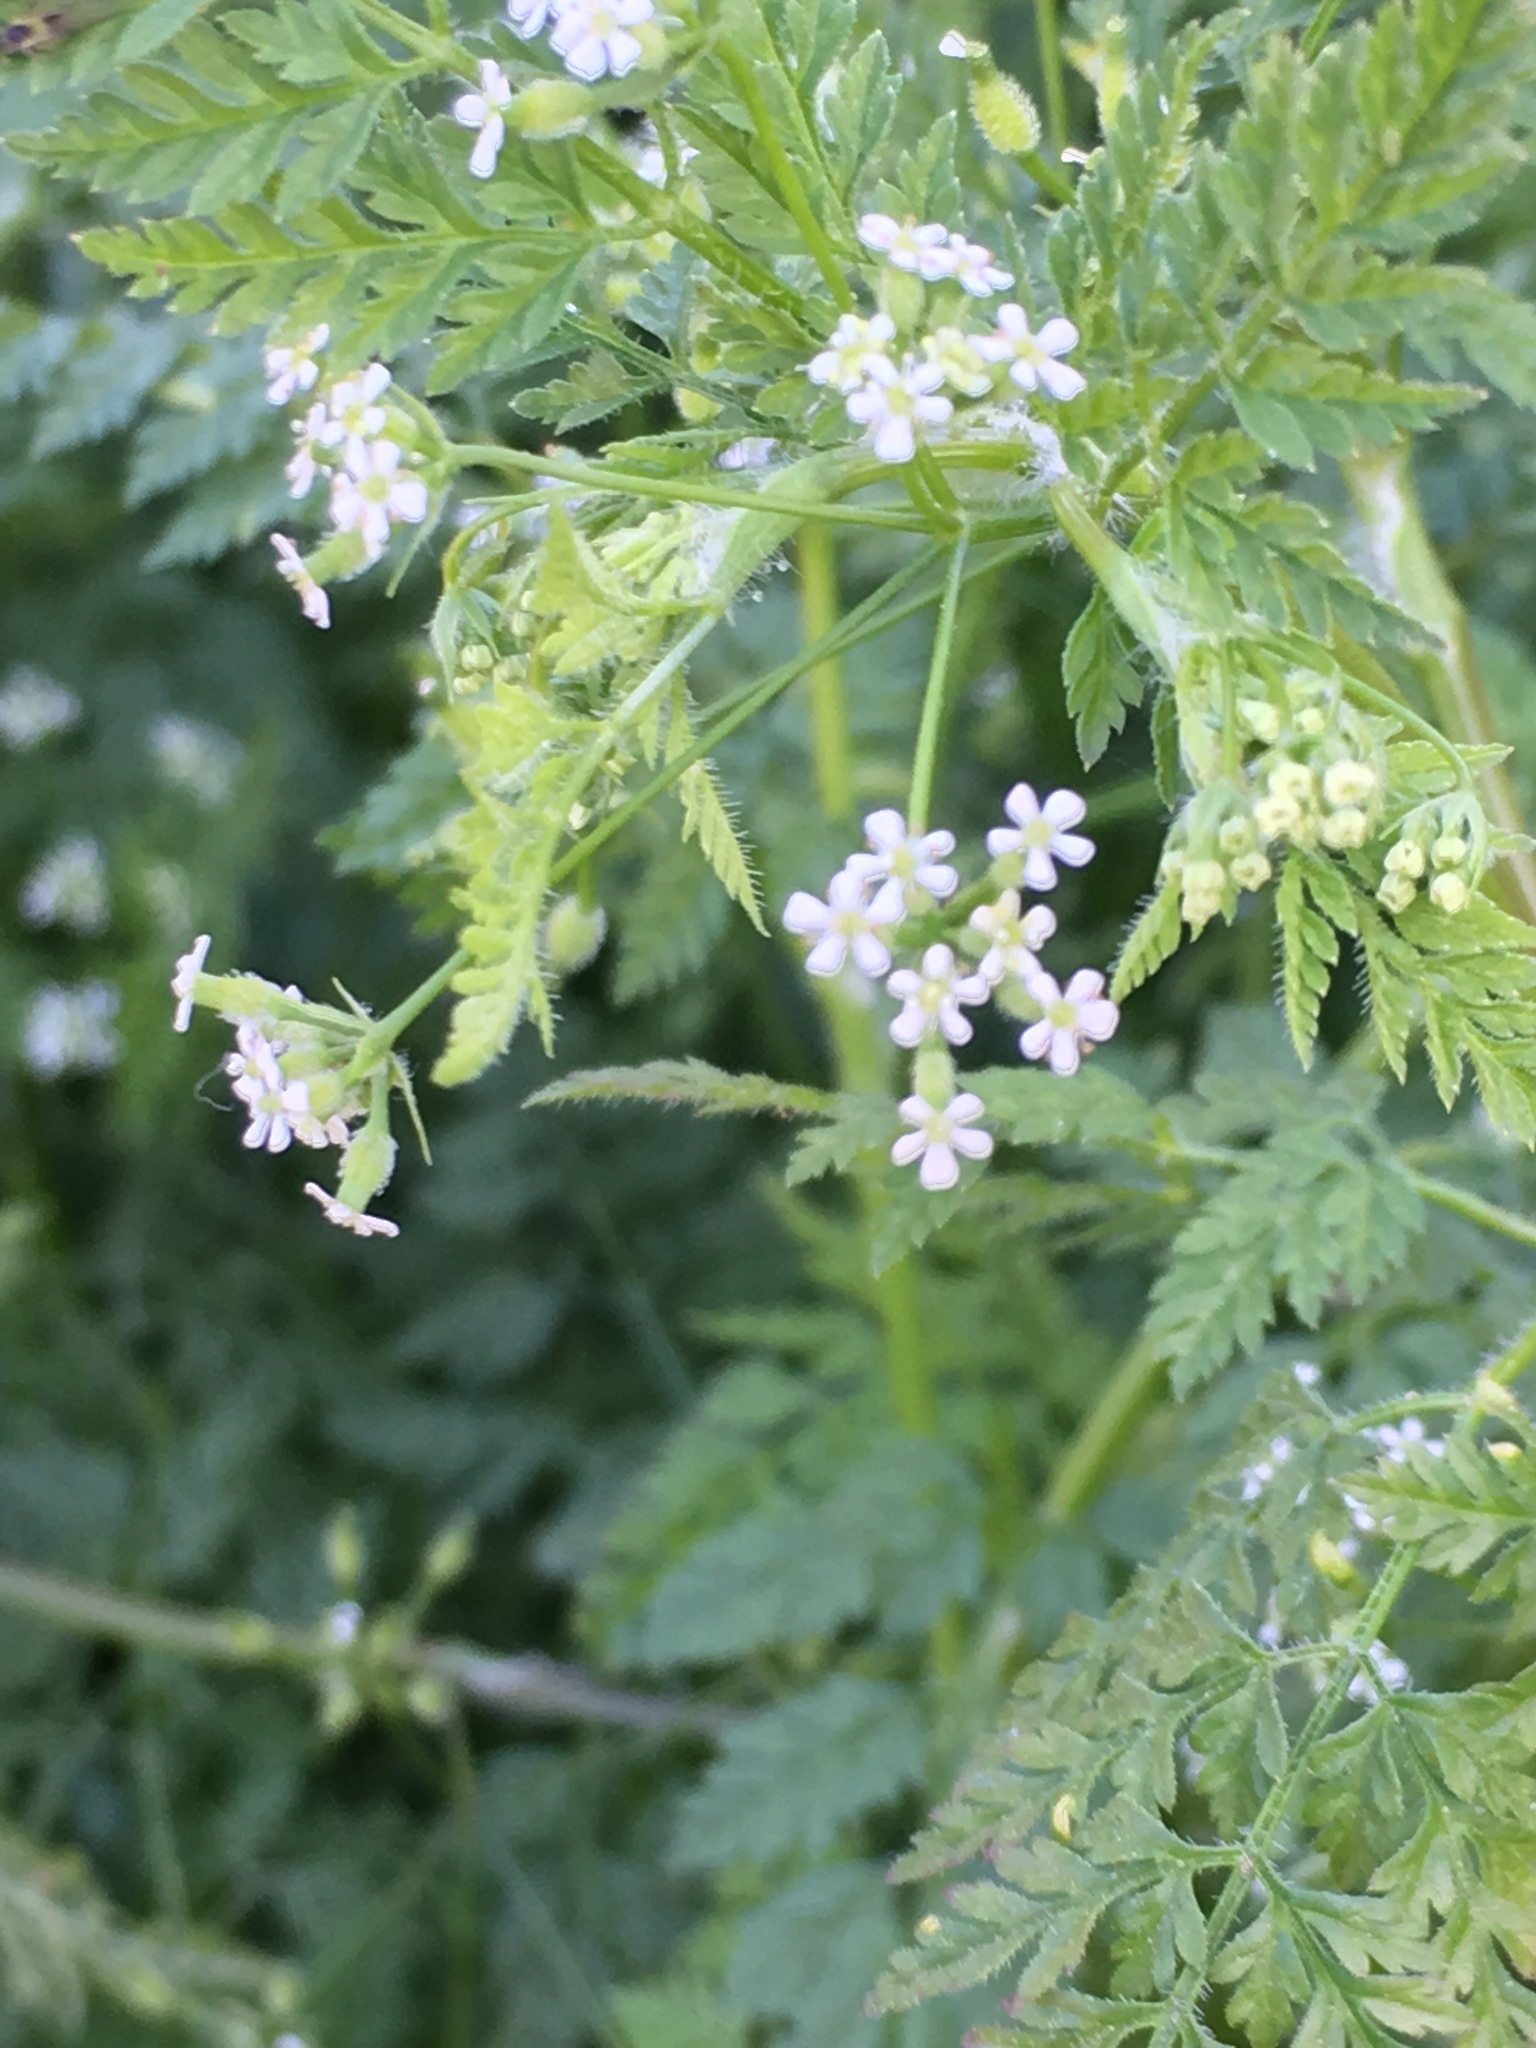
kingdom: Plantae
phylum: Tracheophyta
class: Magnoliopsida
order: Apiales
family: Apiaceae
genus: Conium
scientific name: Conium maculatum
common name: Hemlock
